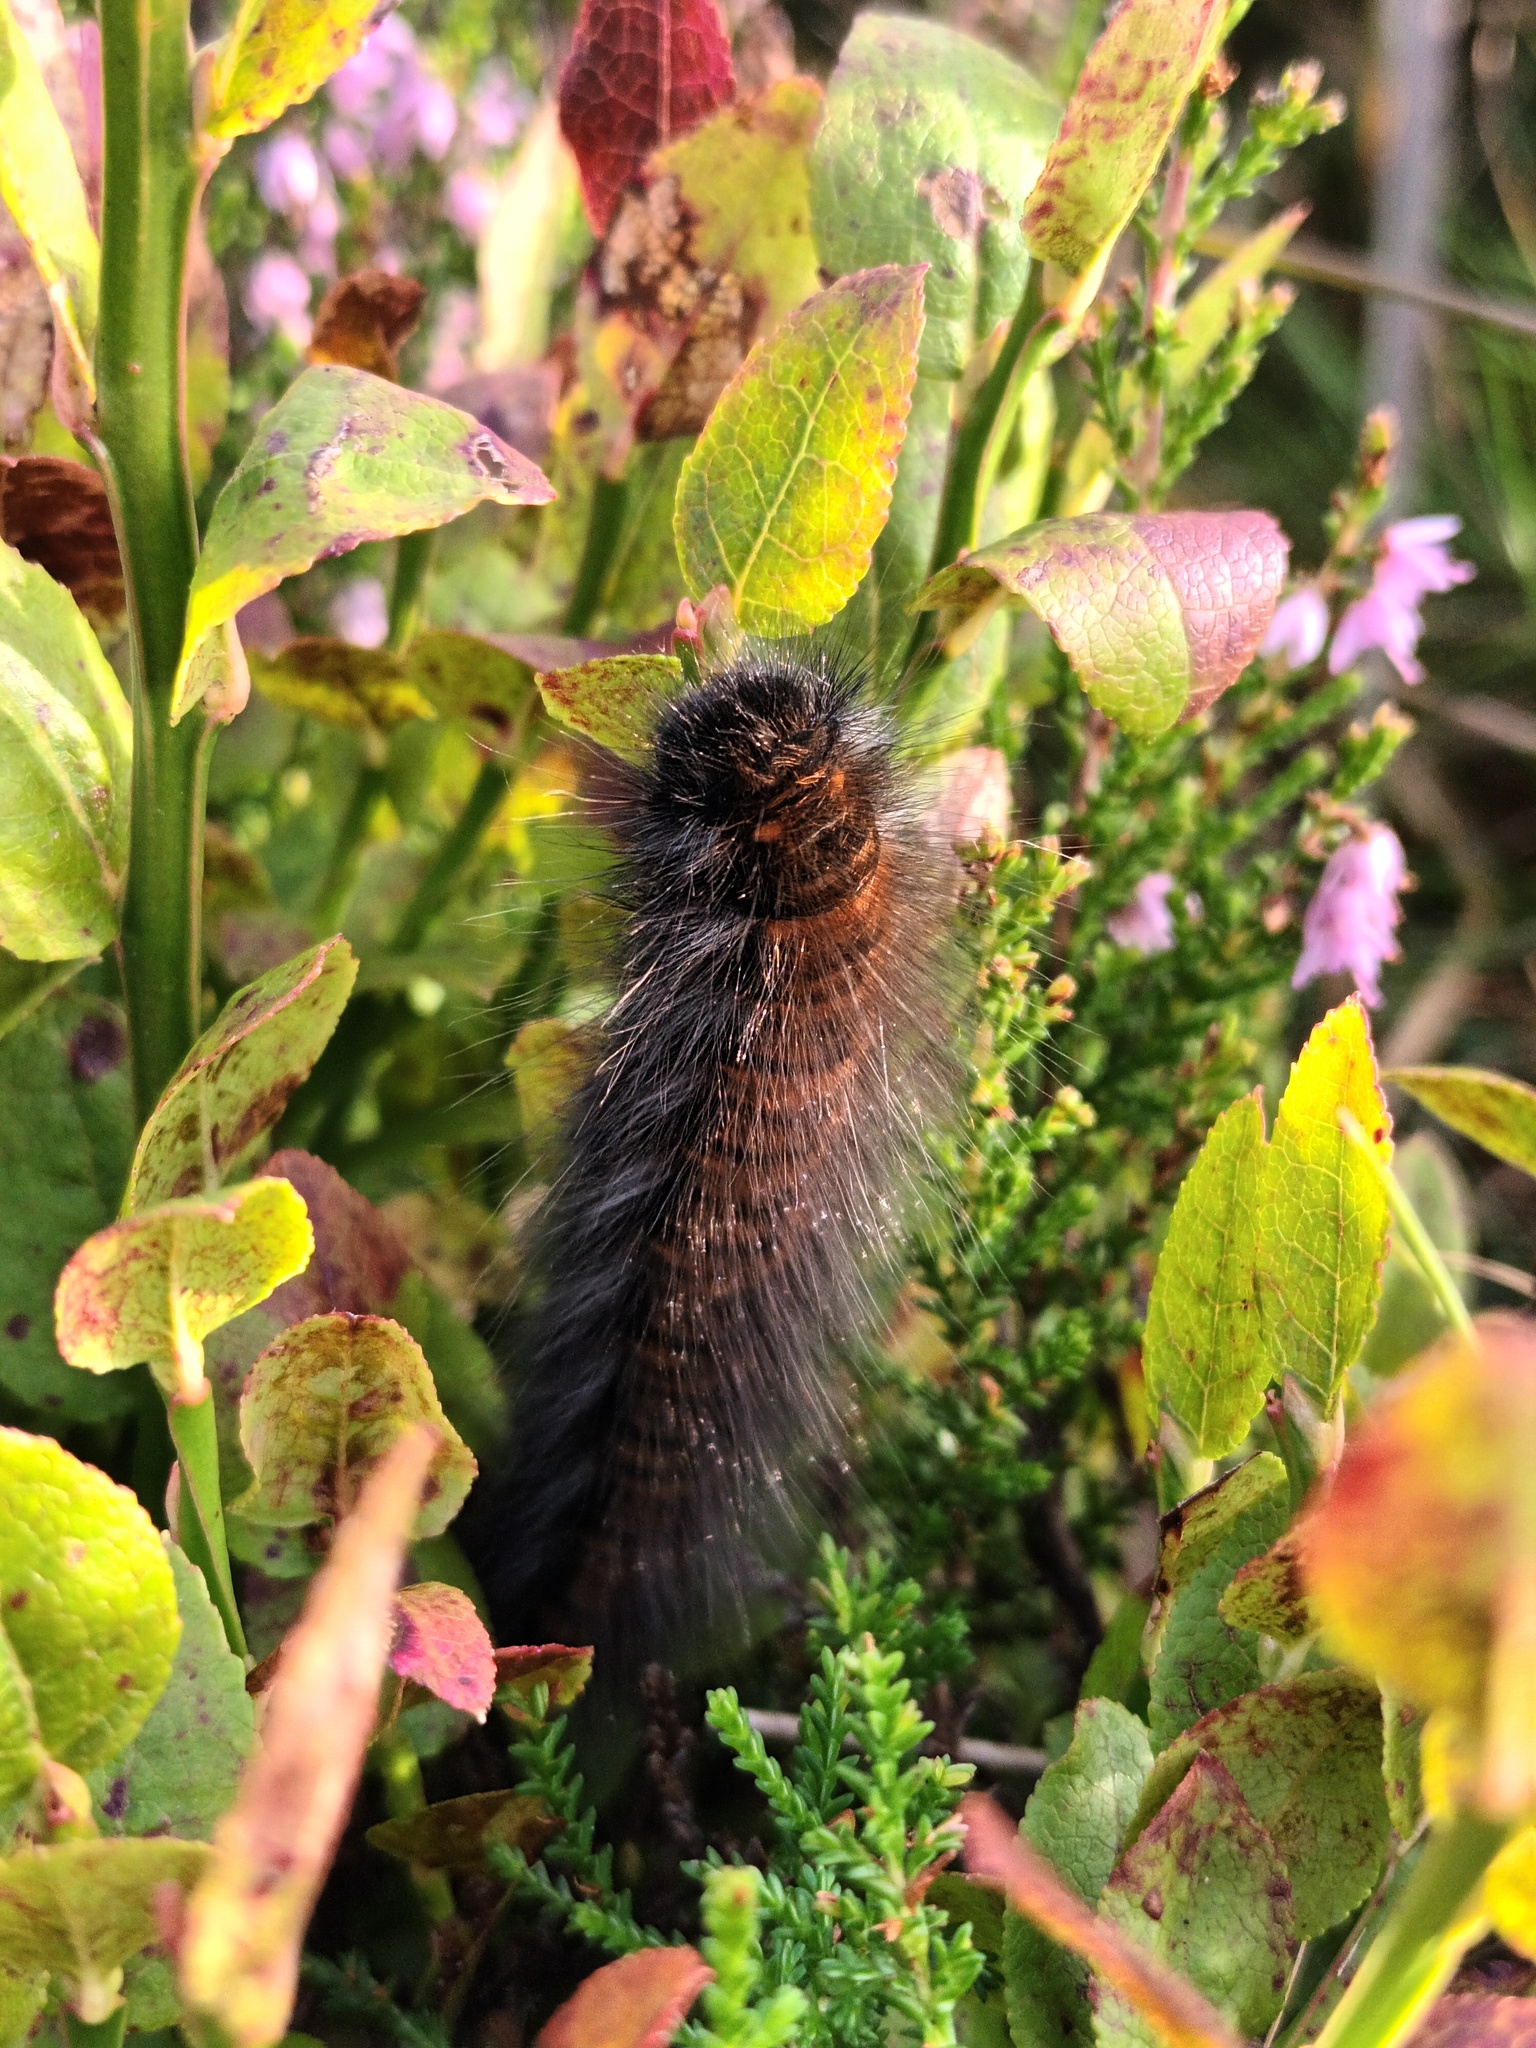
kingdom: Animalia
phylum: Arthropoda
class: Insecta
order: Lepidoptera
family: Lasiocampidae
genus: Macrothylacia
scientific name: Macrothylacia rubi
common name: Fox moth
